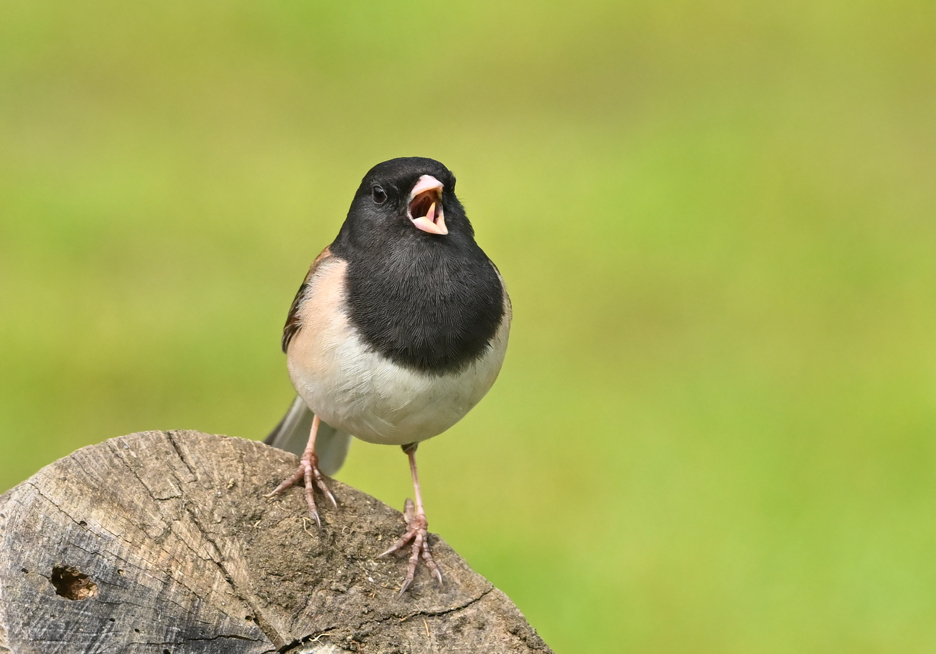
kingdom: Animalia
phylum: Chordata
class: Aves
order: Passeriformes
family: Passerellidae
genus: Junco
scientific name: Junco hyemalis
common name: Dark-eyed junco
